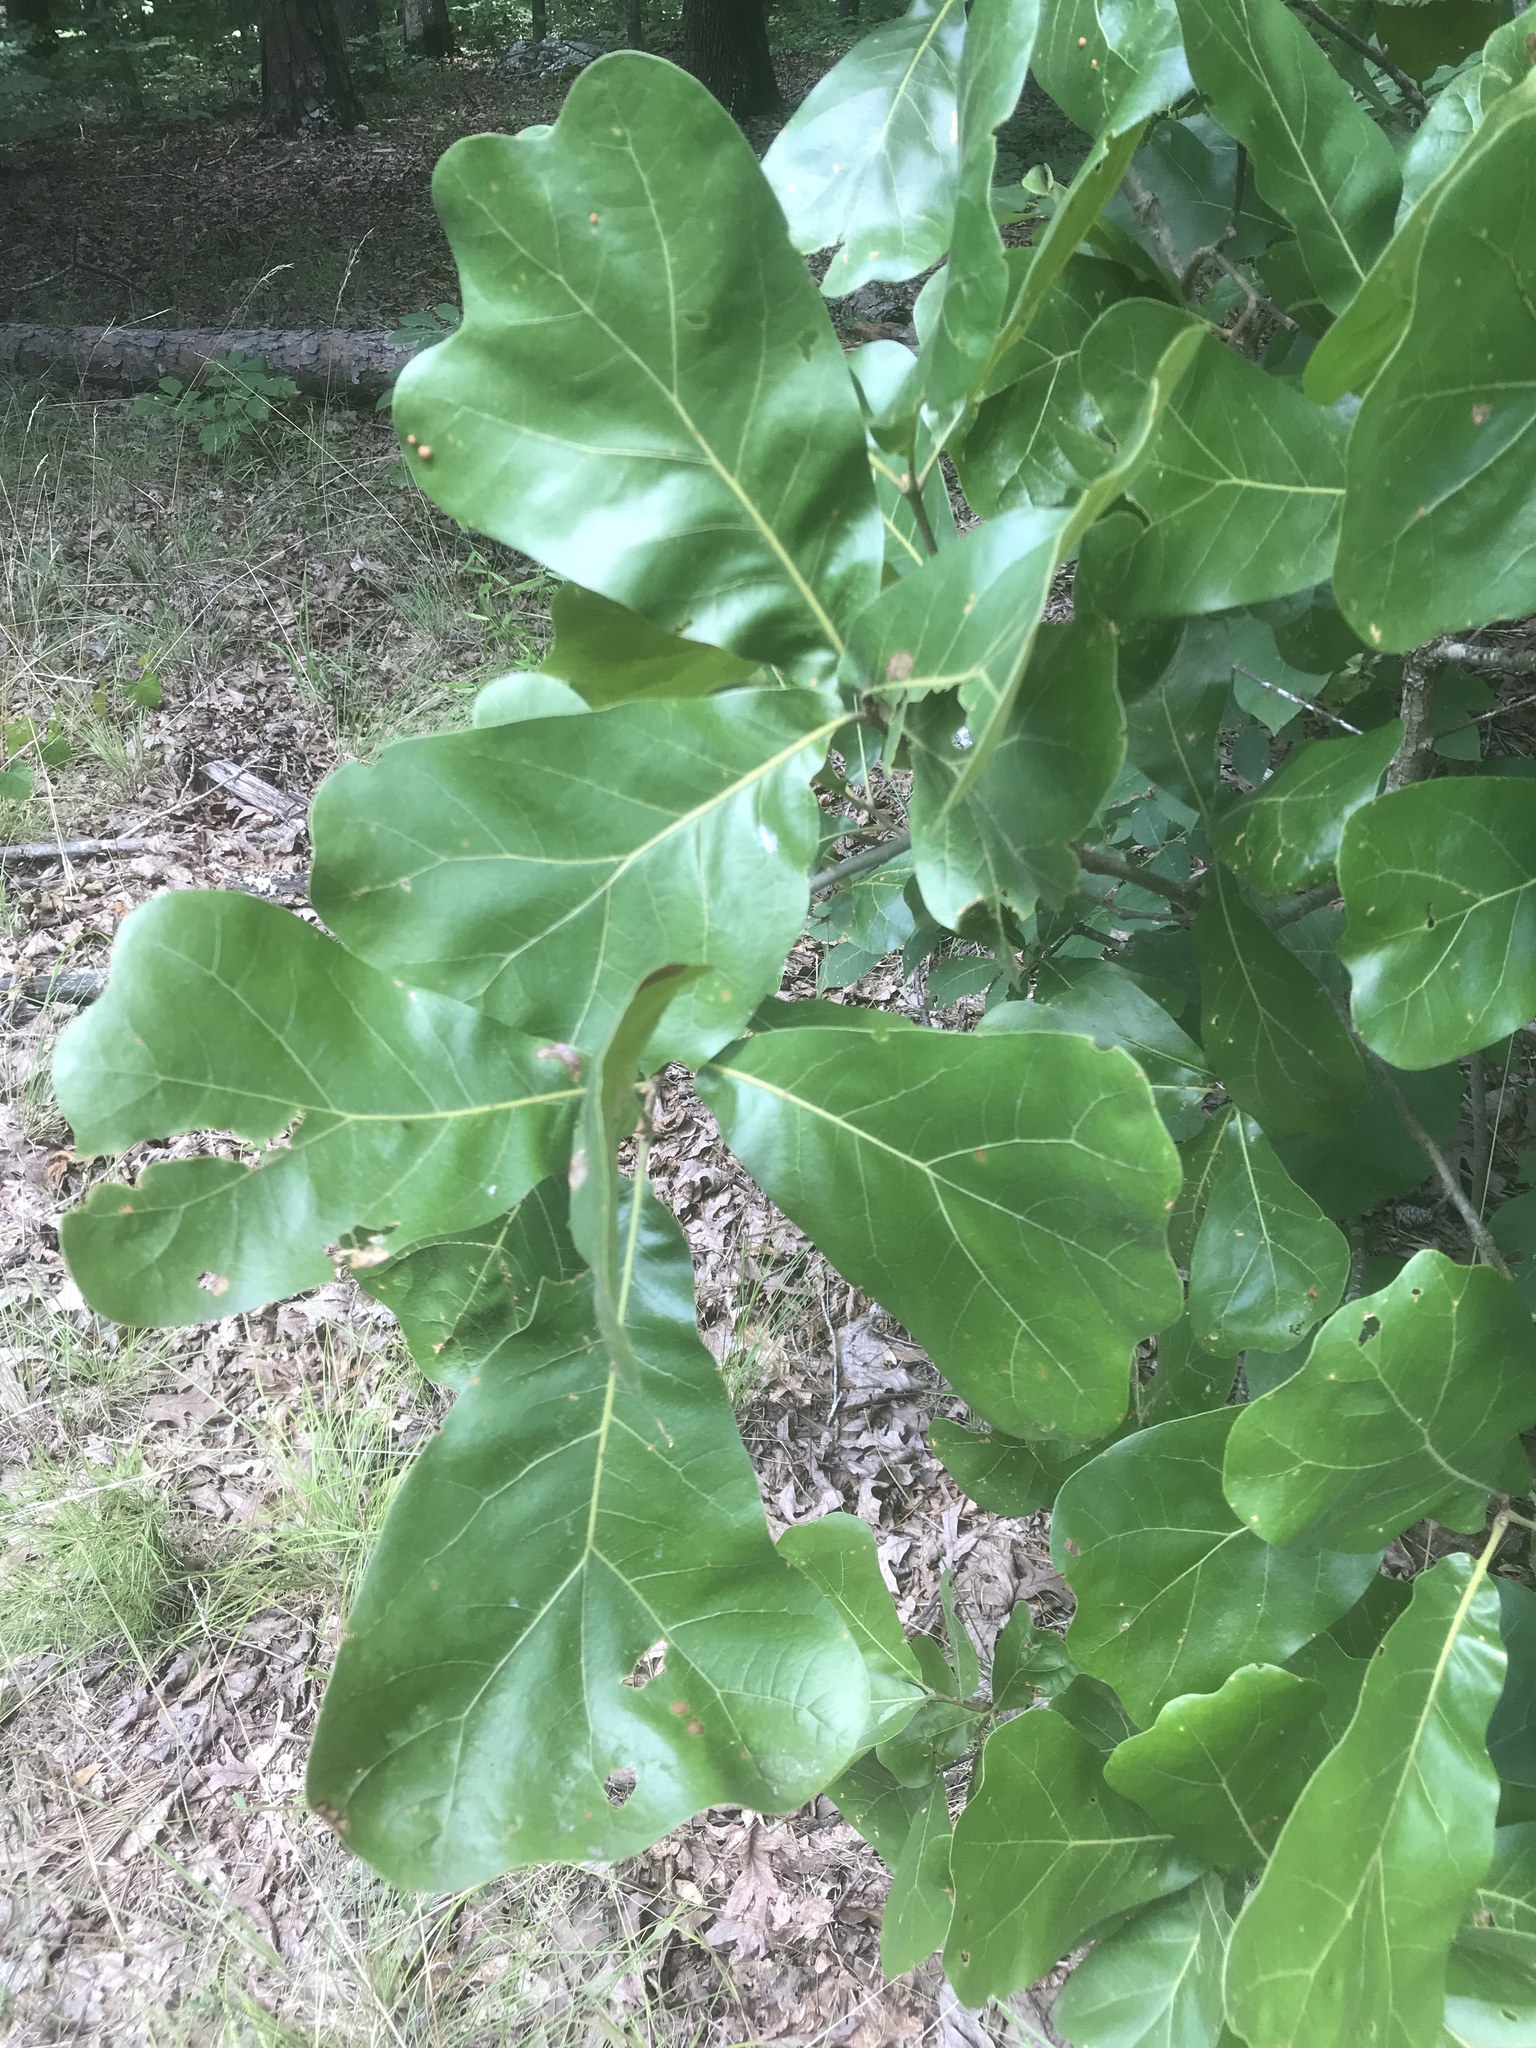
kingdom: Plantae
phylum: Tracheophyta
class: Magnoliopsida
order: Fagales
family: Fagaceae
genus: Quercus
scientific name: Quercus marilandica
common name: Blackjack oak
